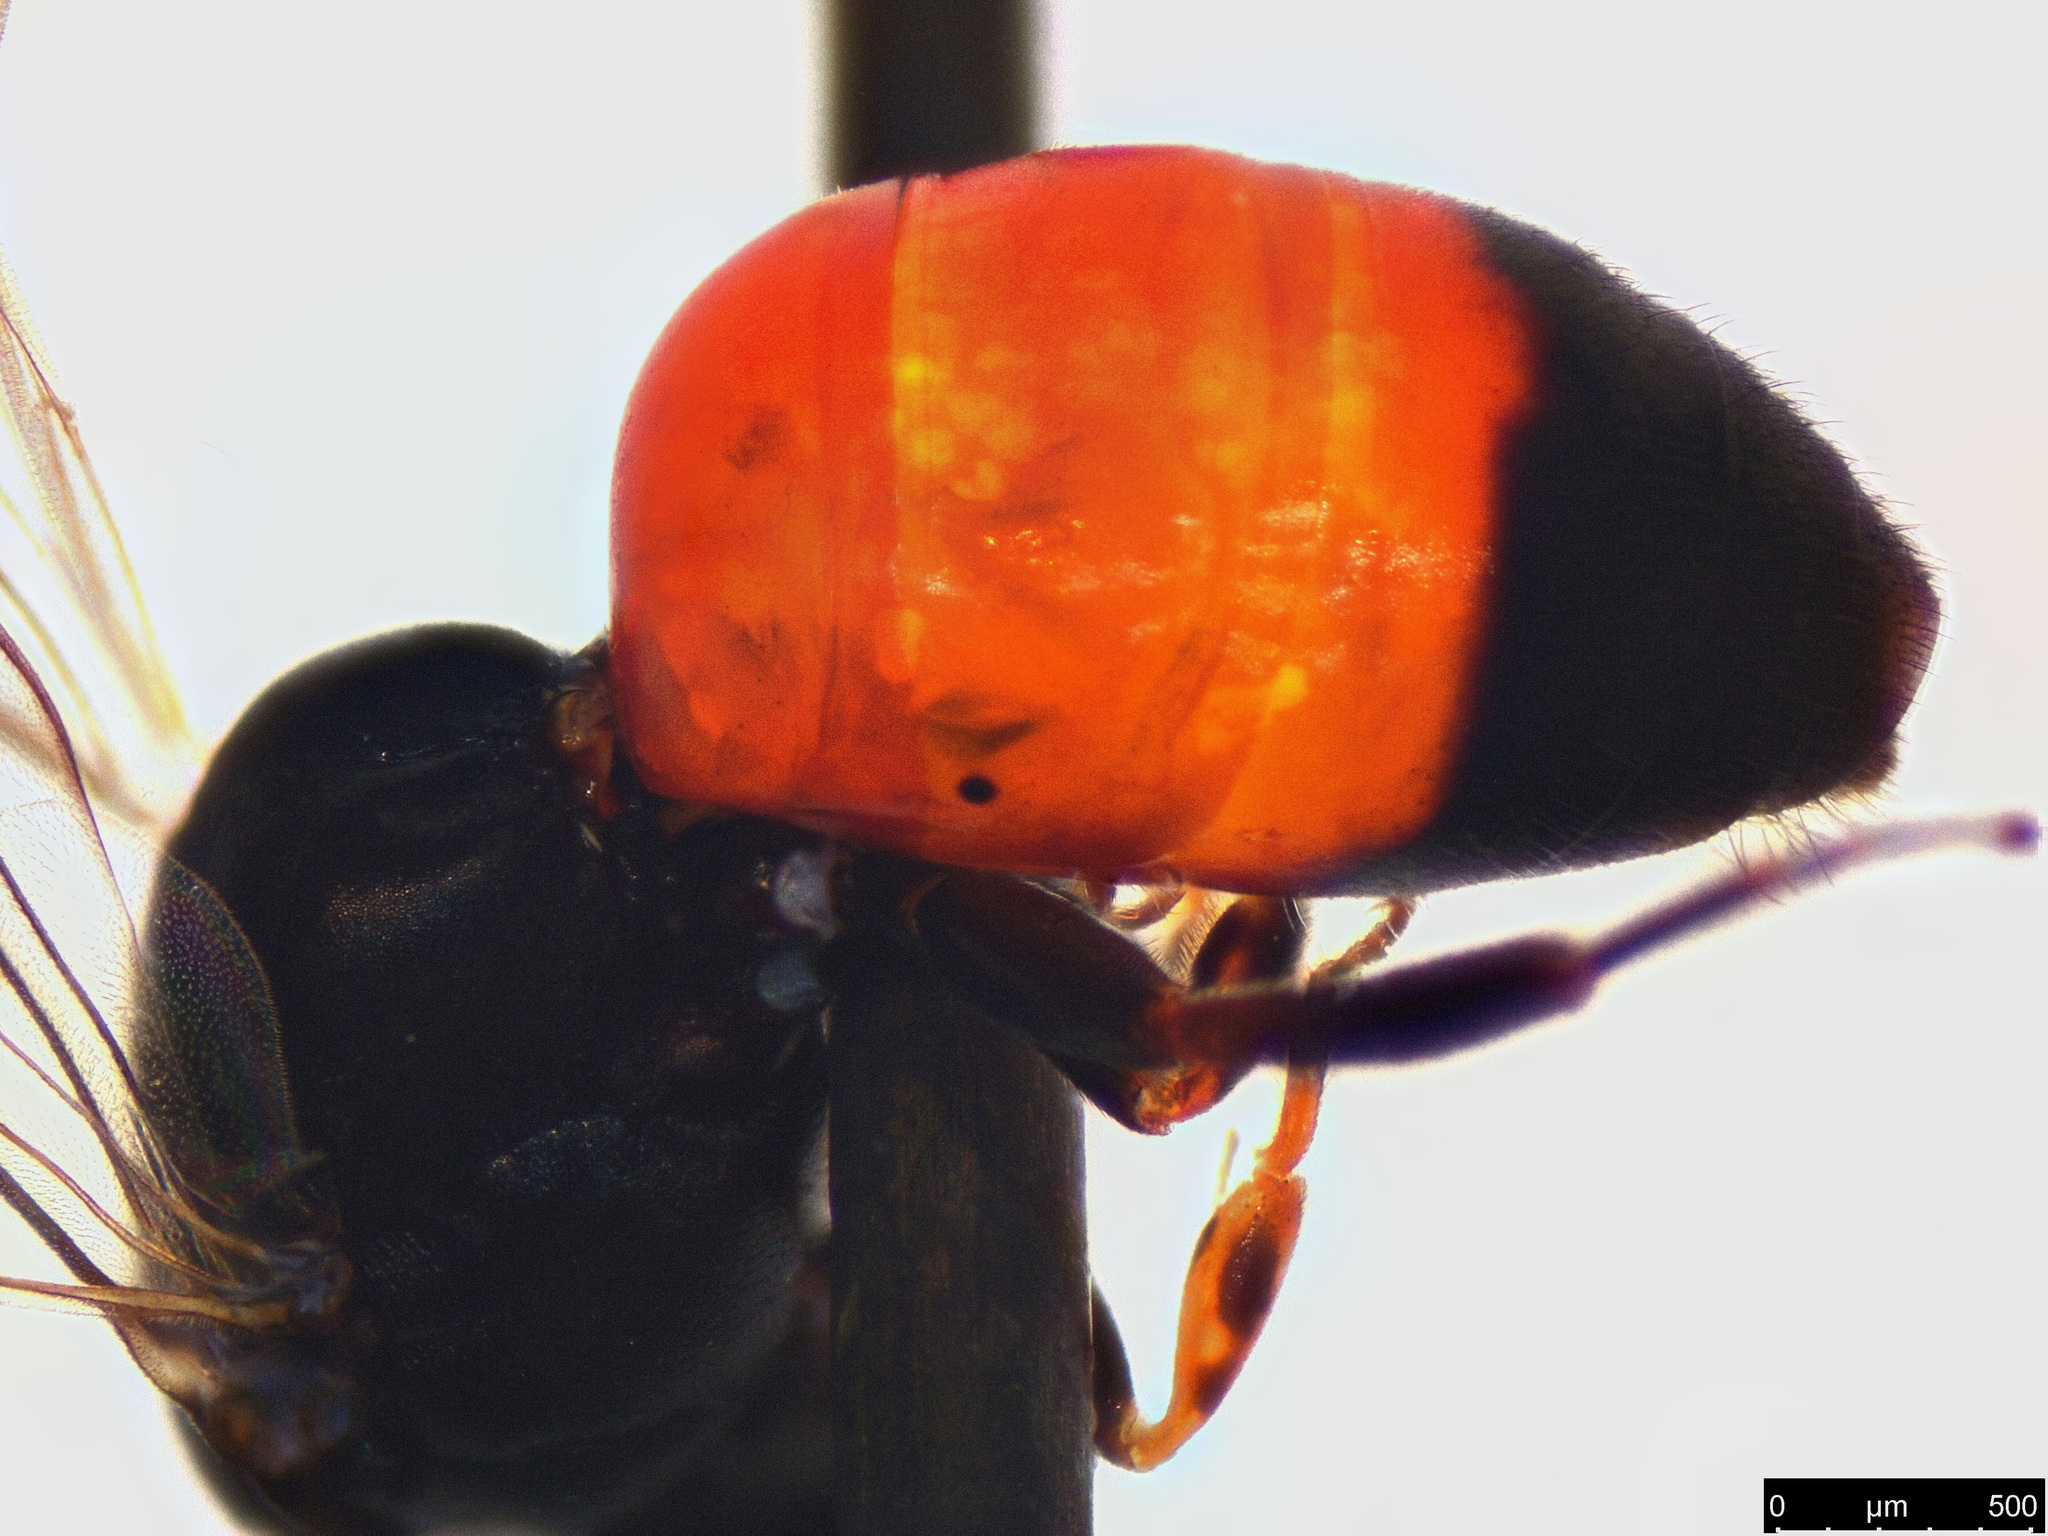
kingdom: Animalia
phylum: Arthropoda
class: Insecta
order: Hymenoptera
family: Colletidae
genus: Hylaeus
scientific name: Hylaeus littleri
